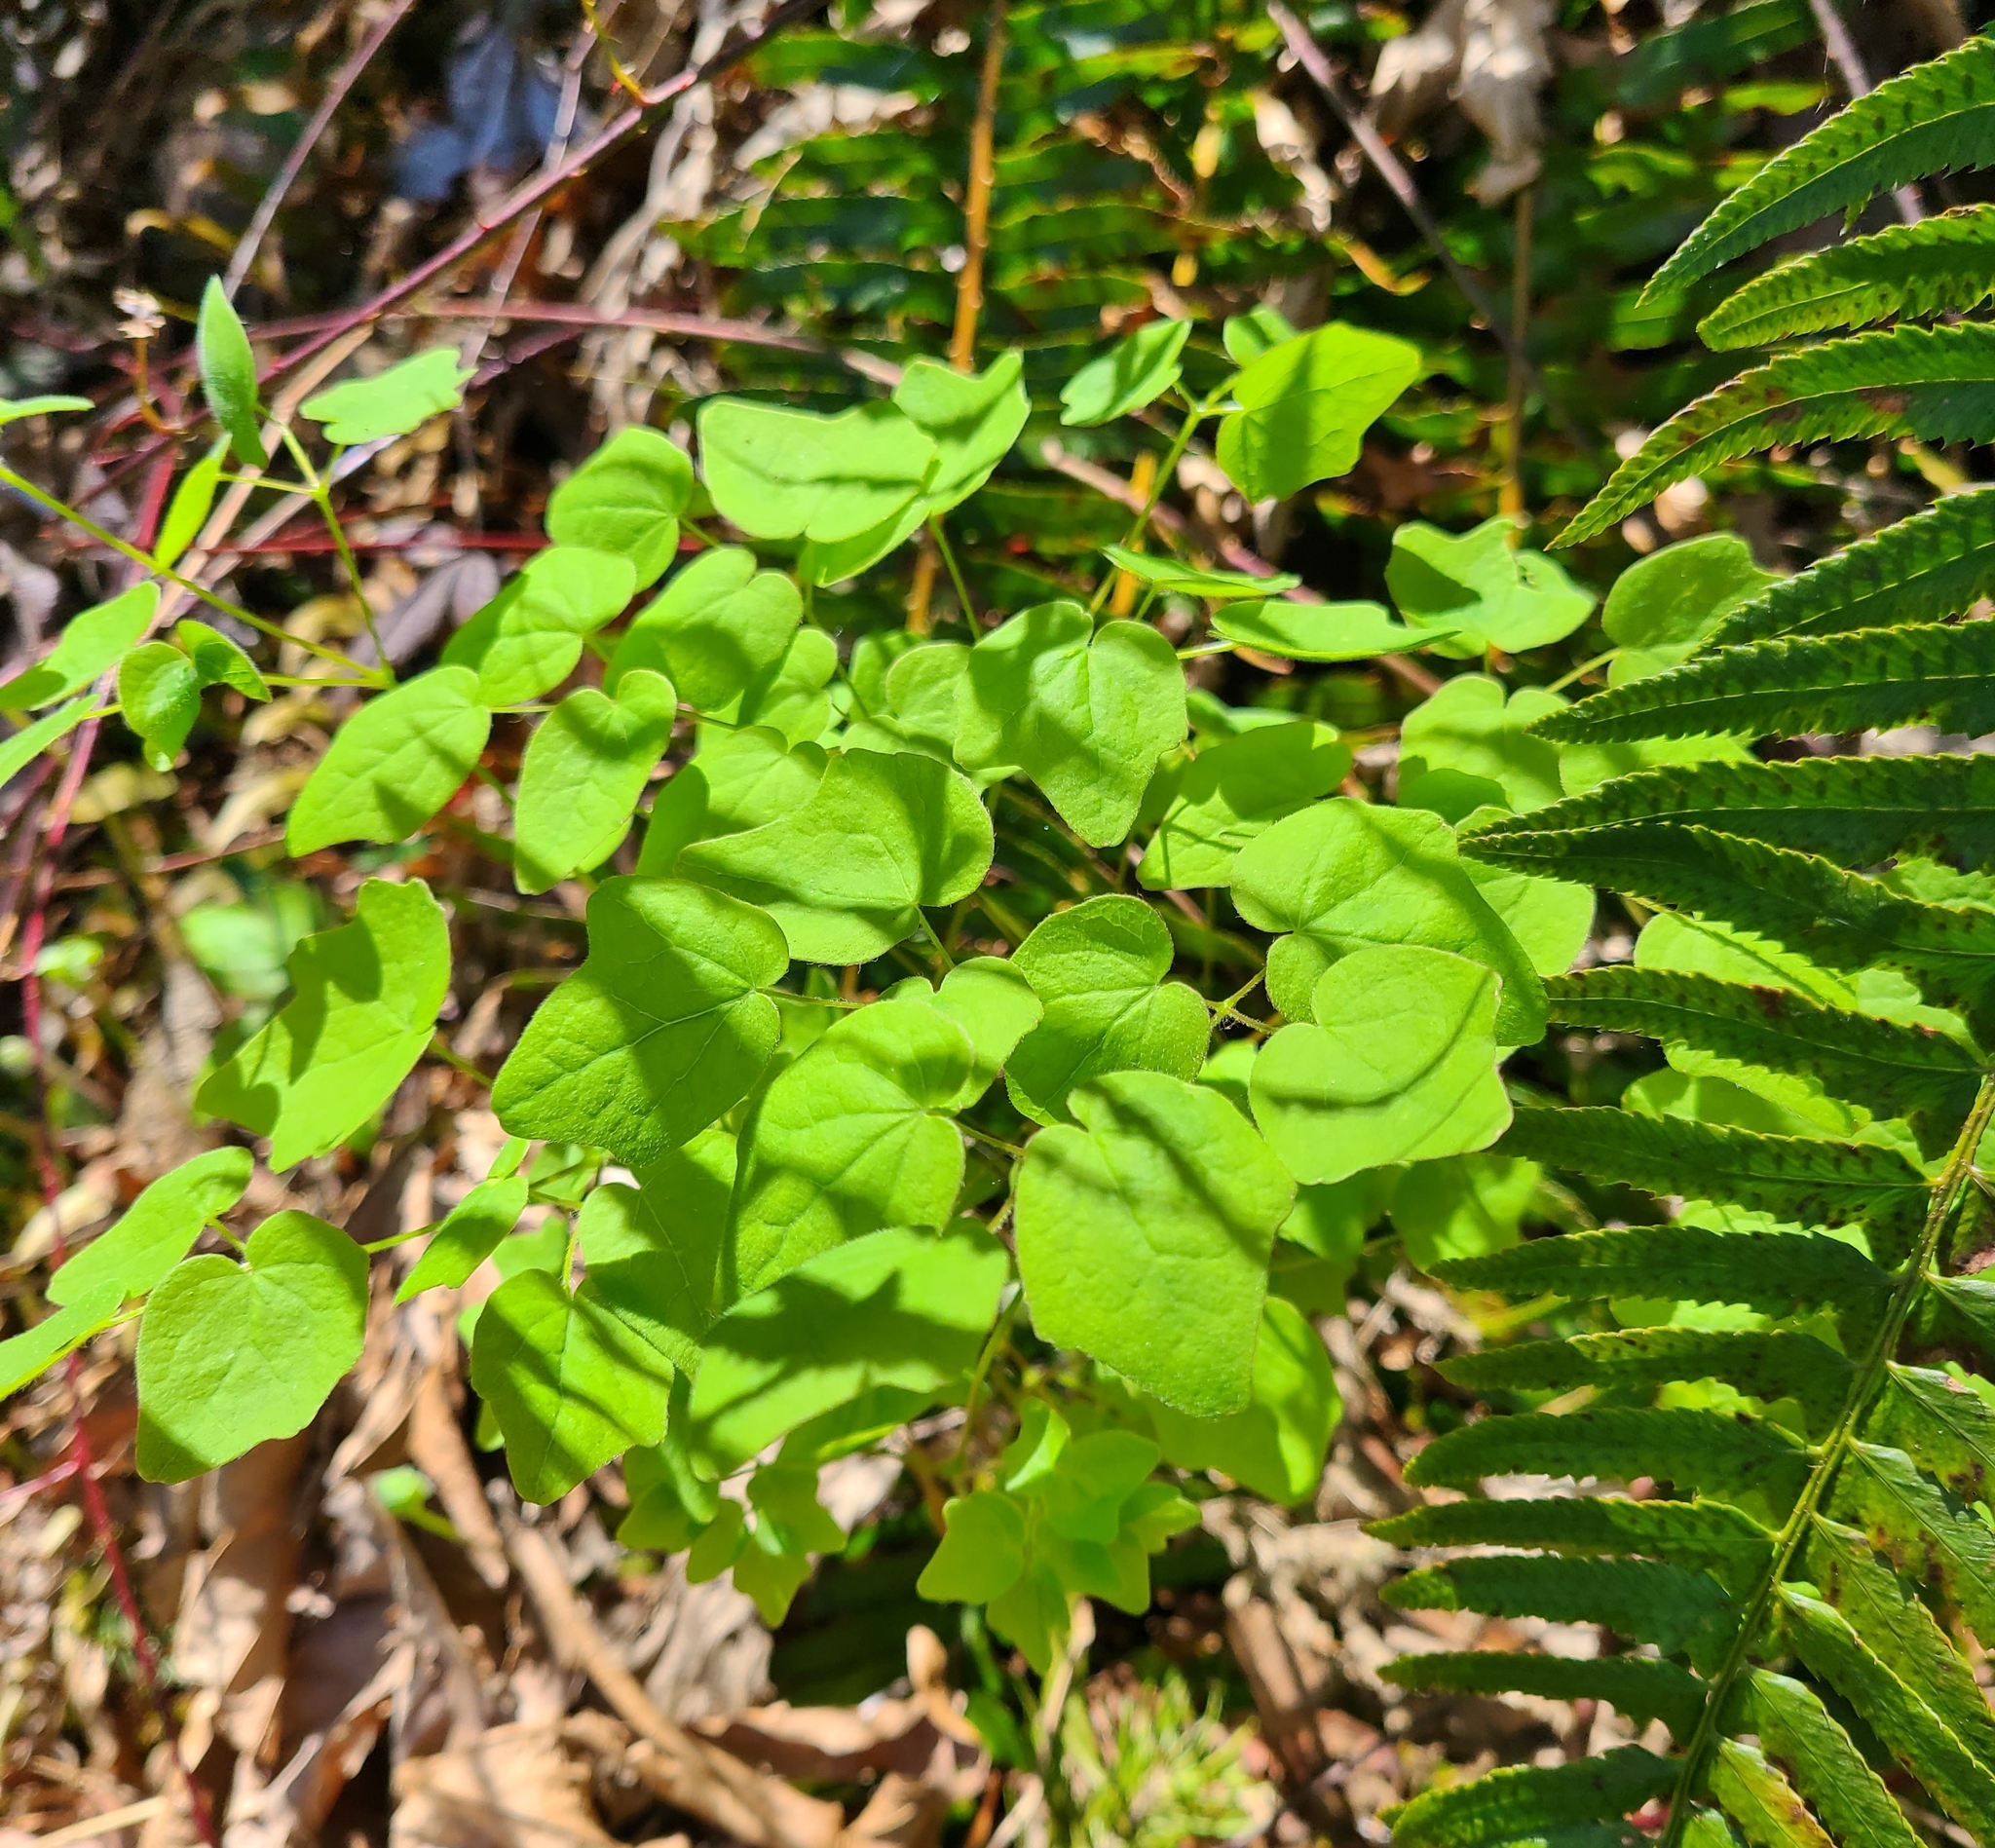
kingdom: Plantae
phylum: Tracheophyta
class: Magnoliopsida
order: Ranunculales
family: Berberidaceae
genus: Vancouveria
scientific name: Vancouveria hexandra
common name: Northern inside-out-flower
